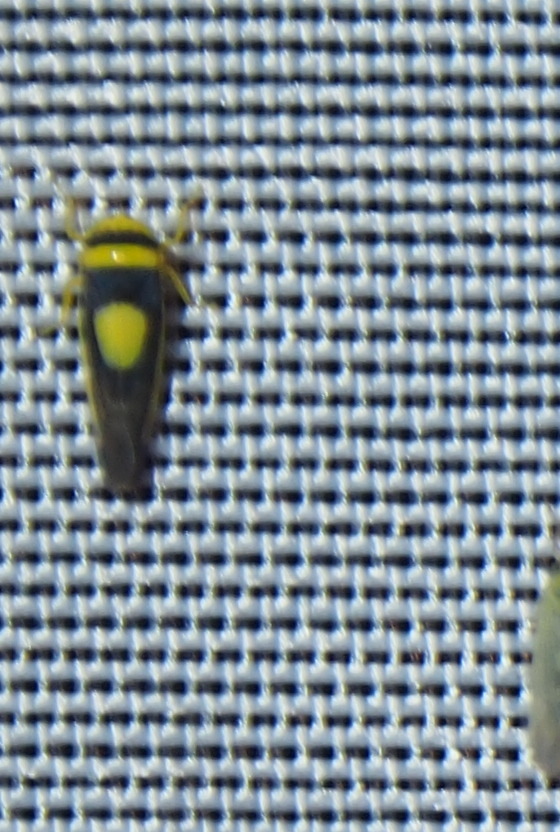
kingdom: Animalia
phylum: Arthropoda
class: Insecta
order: Hemiptera
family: Cicadellidae
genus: Colladonus
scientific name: Colladonus clitellarius
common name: The saddleback leafhopper
